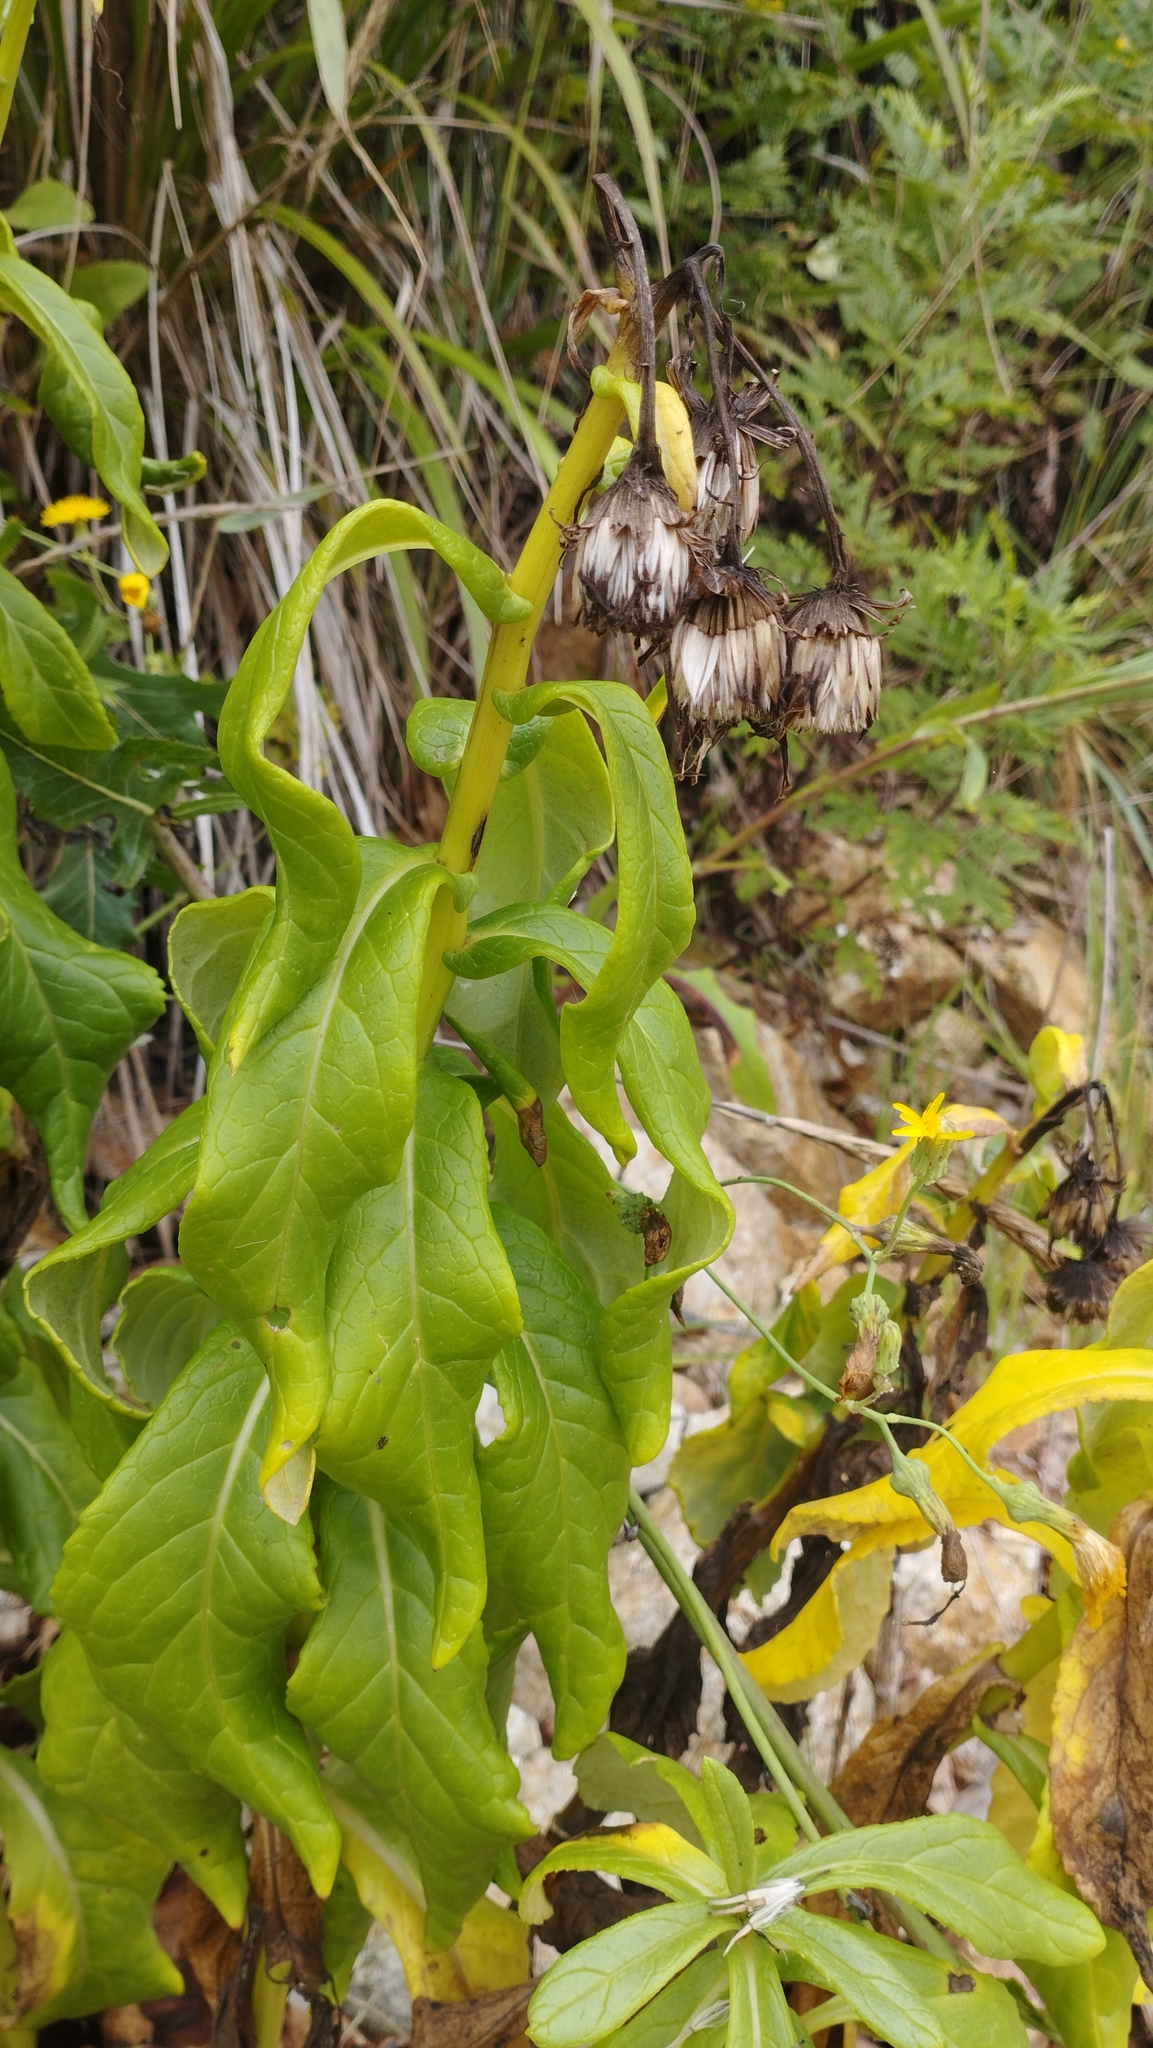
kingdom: Plantae
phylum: Tracheophyta
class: Magnoliopsida
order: Asterales
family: Asteraceae
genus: Jacobaea
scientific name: Jacobaea pseudoarnica
